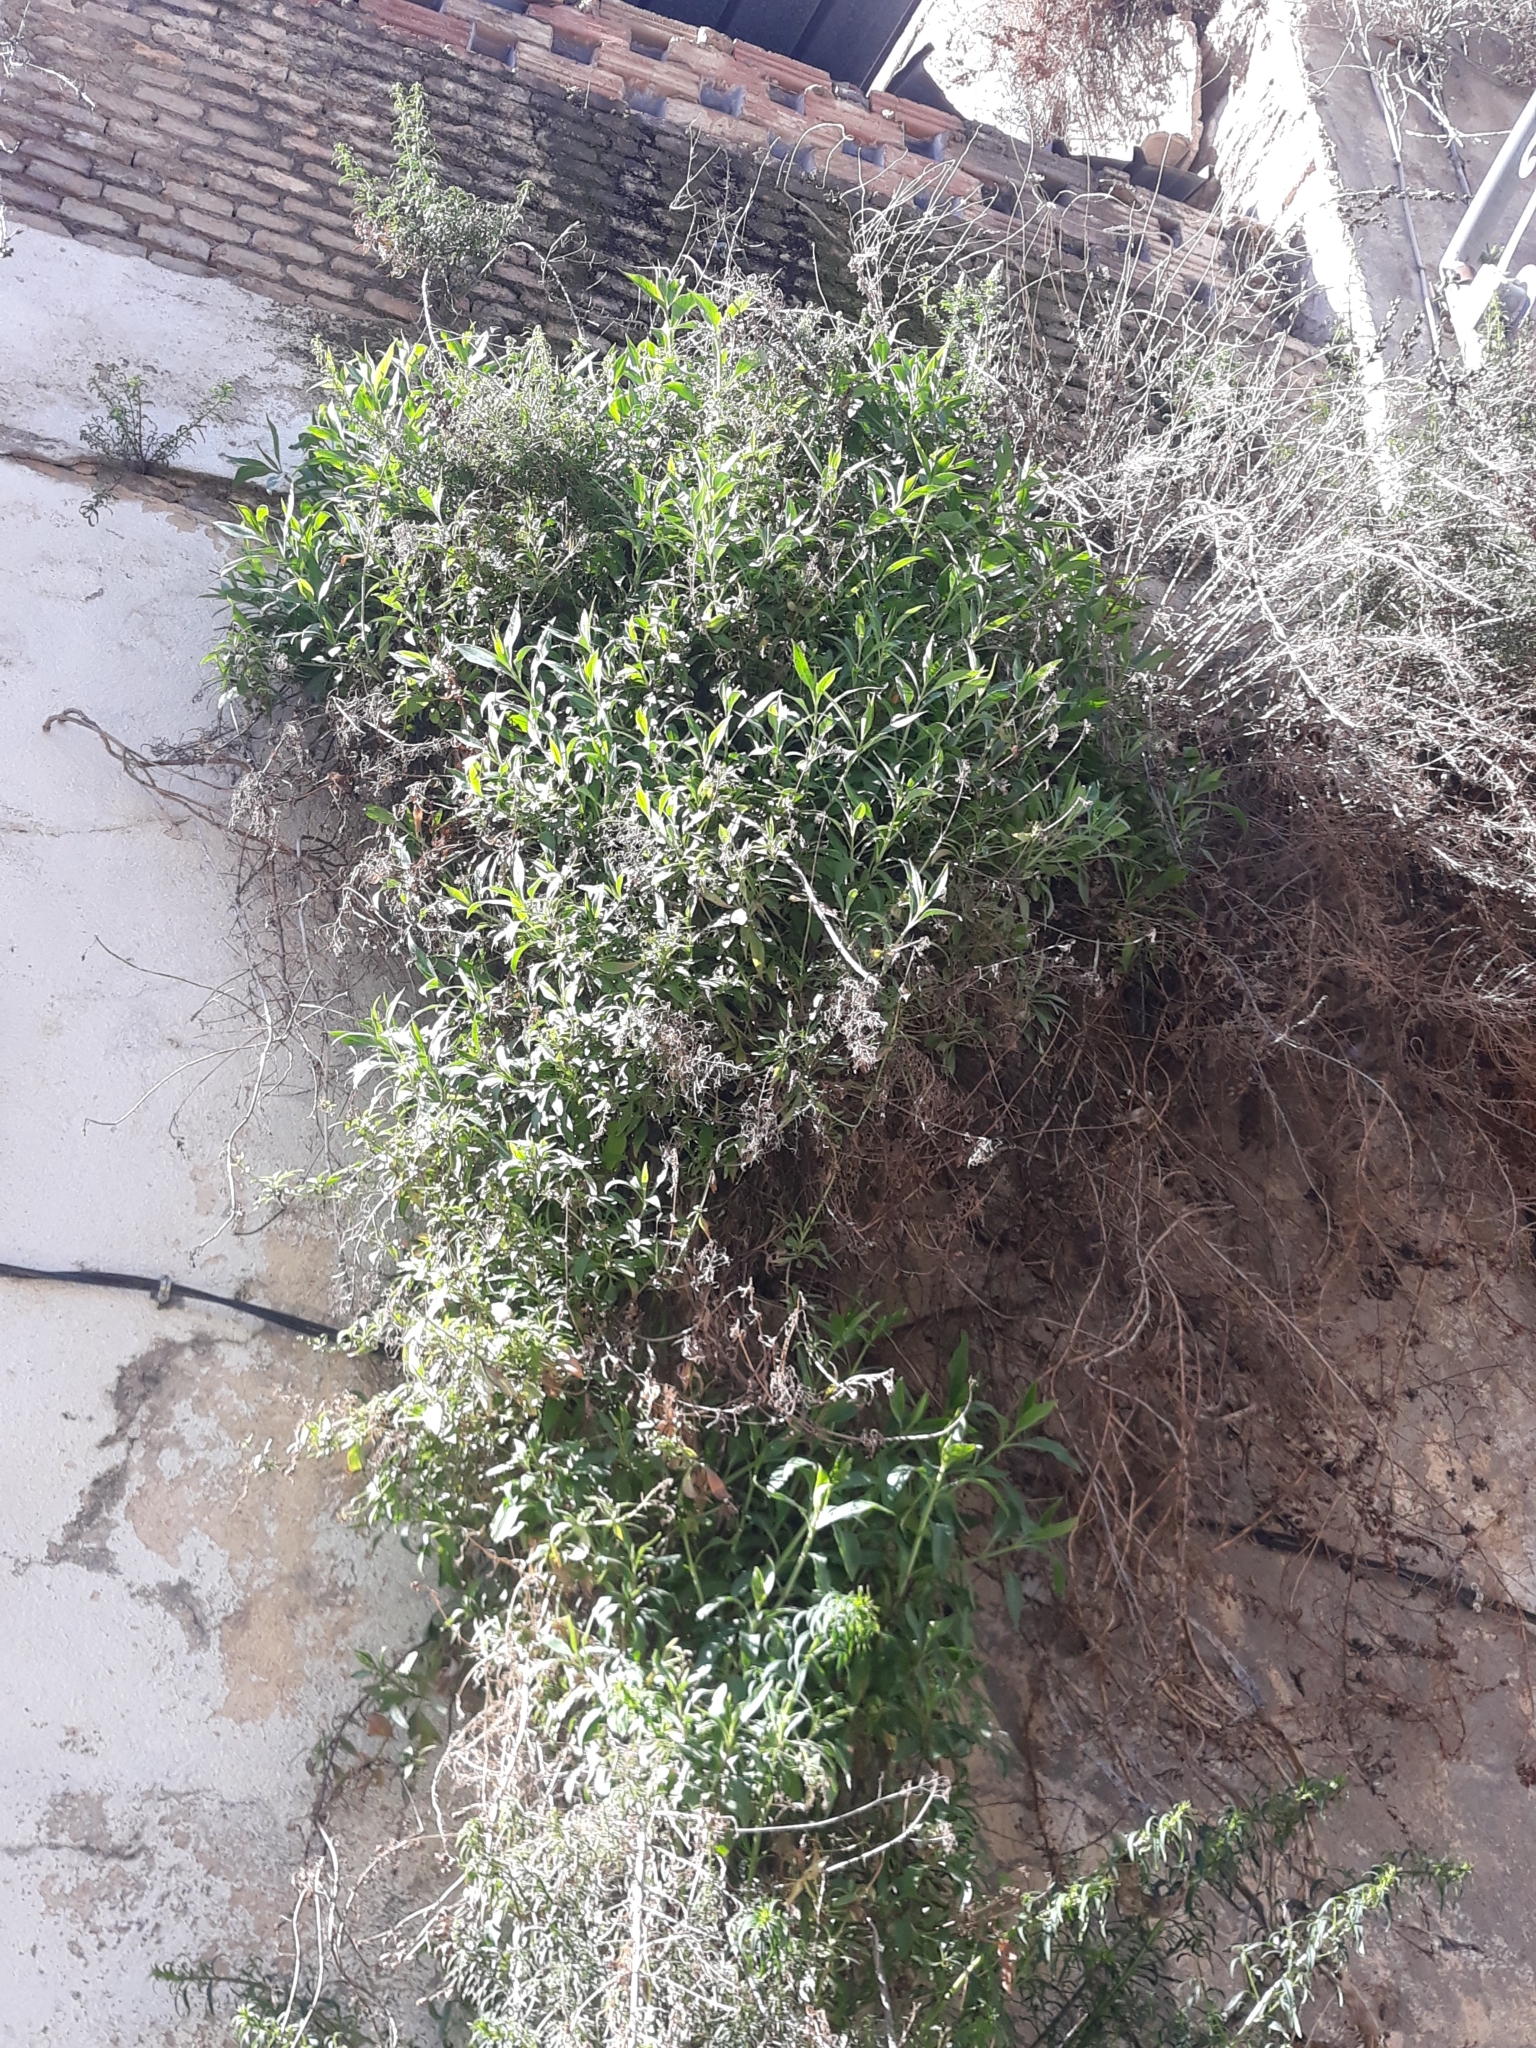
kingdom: Plantae
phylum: Tracheophyta
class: Magnoliopsida
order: Dipsacales
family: Caprifoliaceae
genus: Centranthus
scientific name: Centranthus ruber
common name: Red valerian
